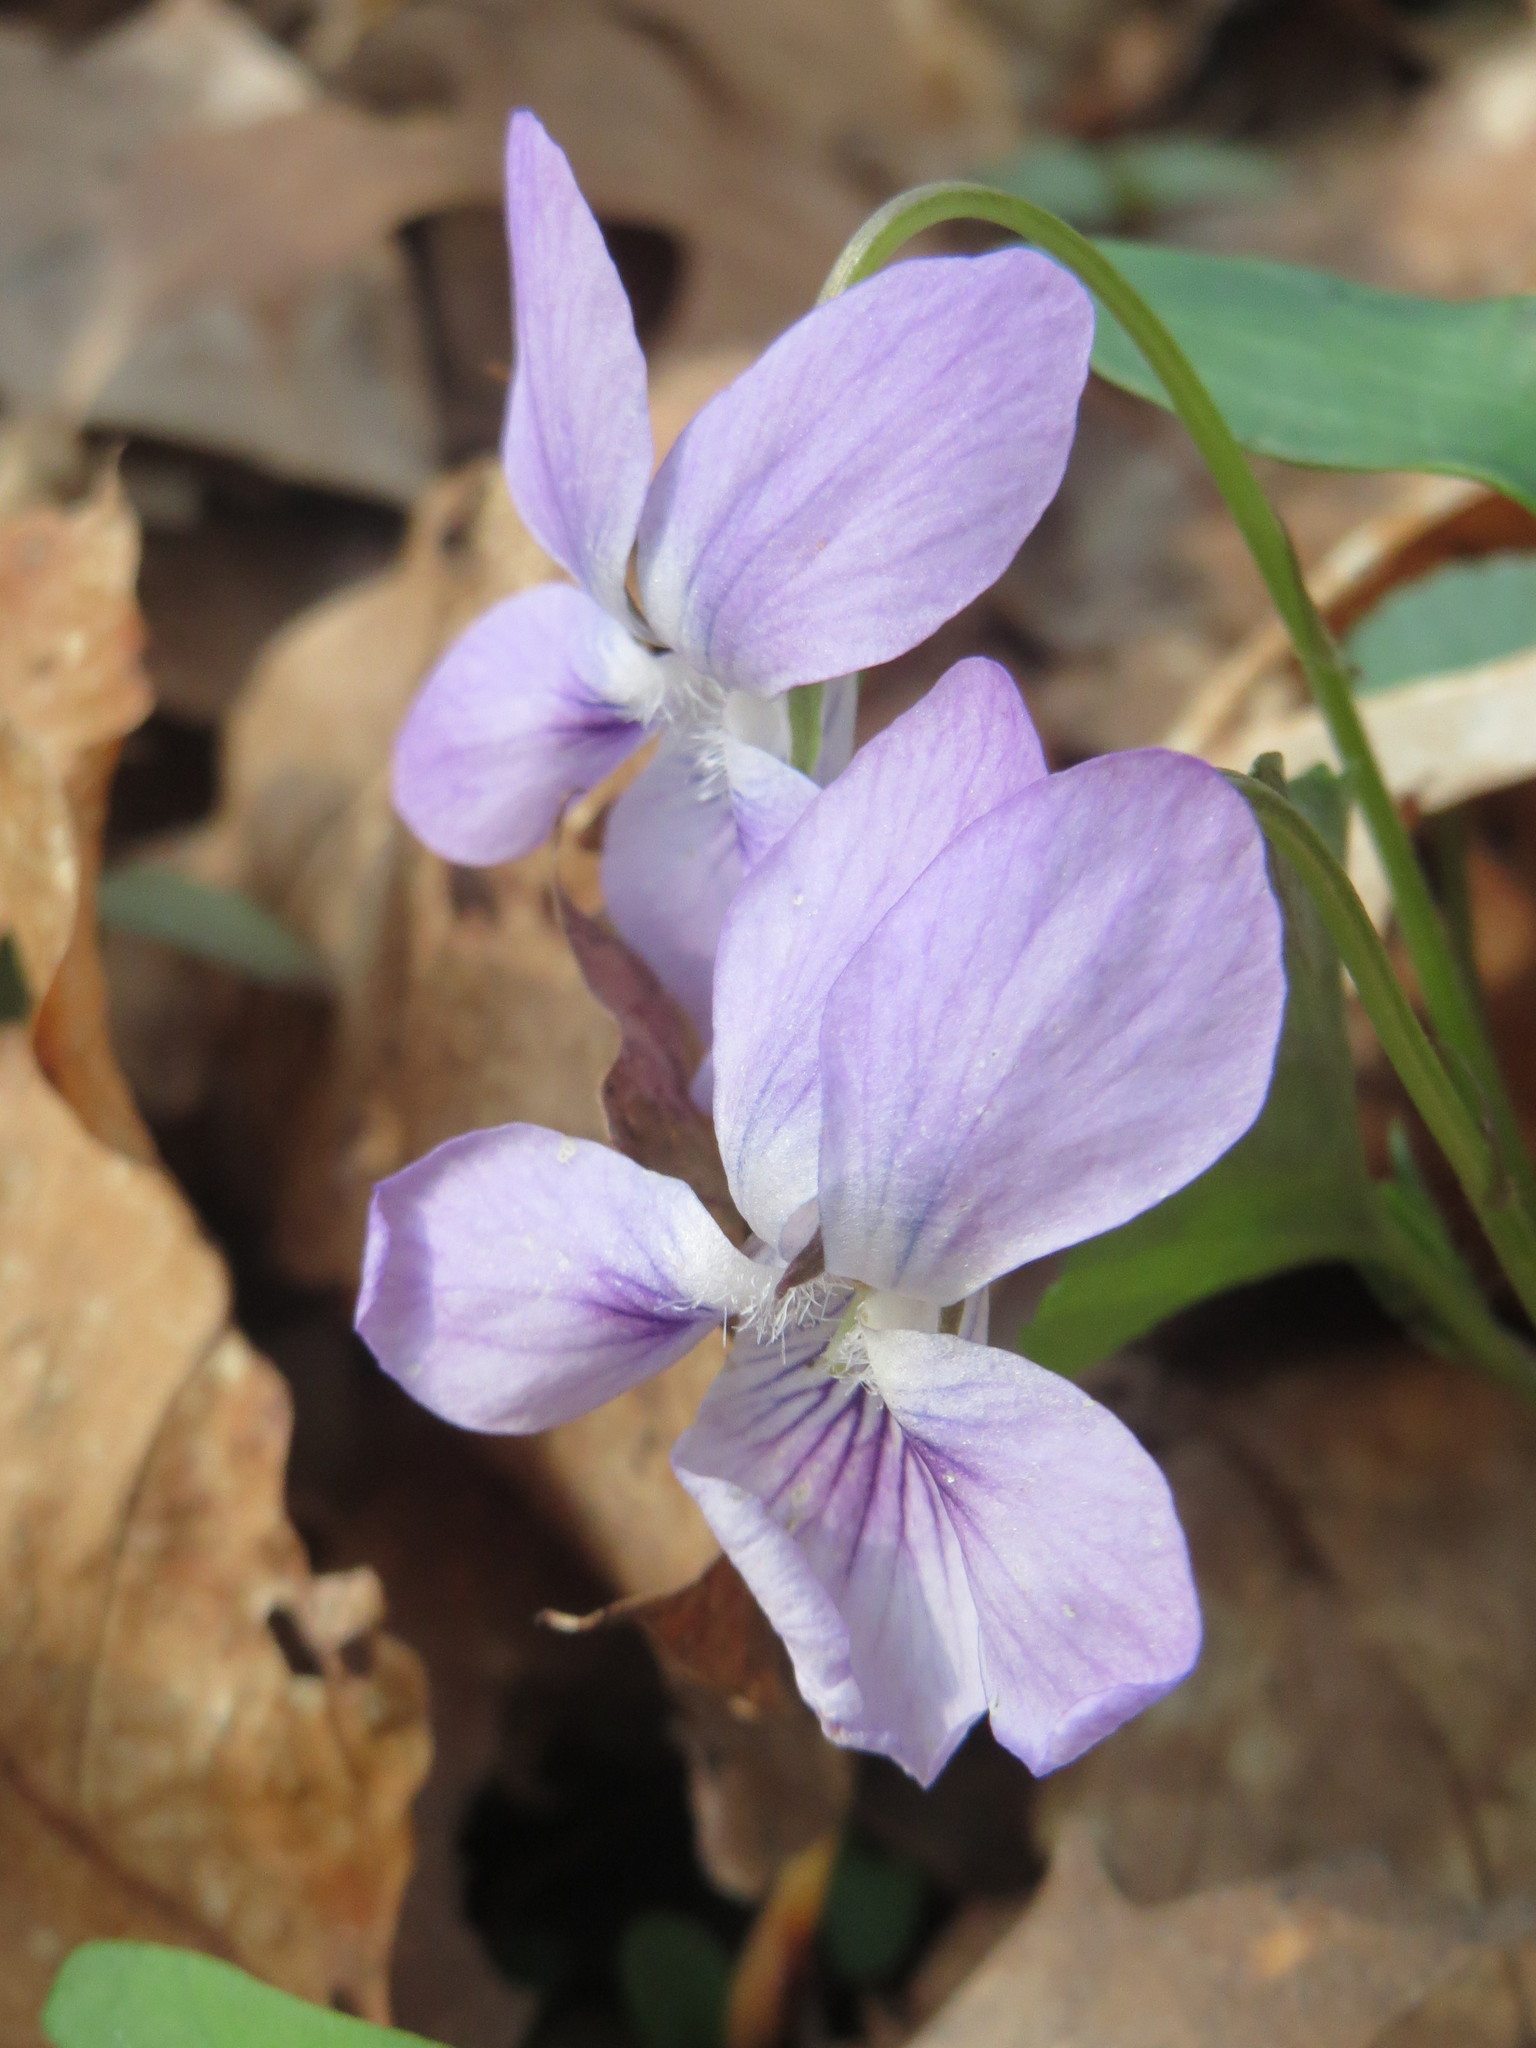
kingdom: Plantae
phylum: Tracheophyta
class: Magnoliopsida
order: Malpighiales
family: Violaceae
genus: Viola
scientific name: Viola reichenbachiana
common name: Early dog-violet
